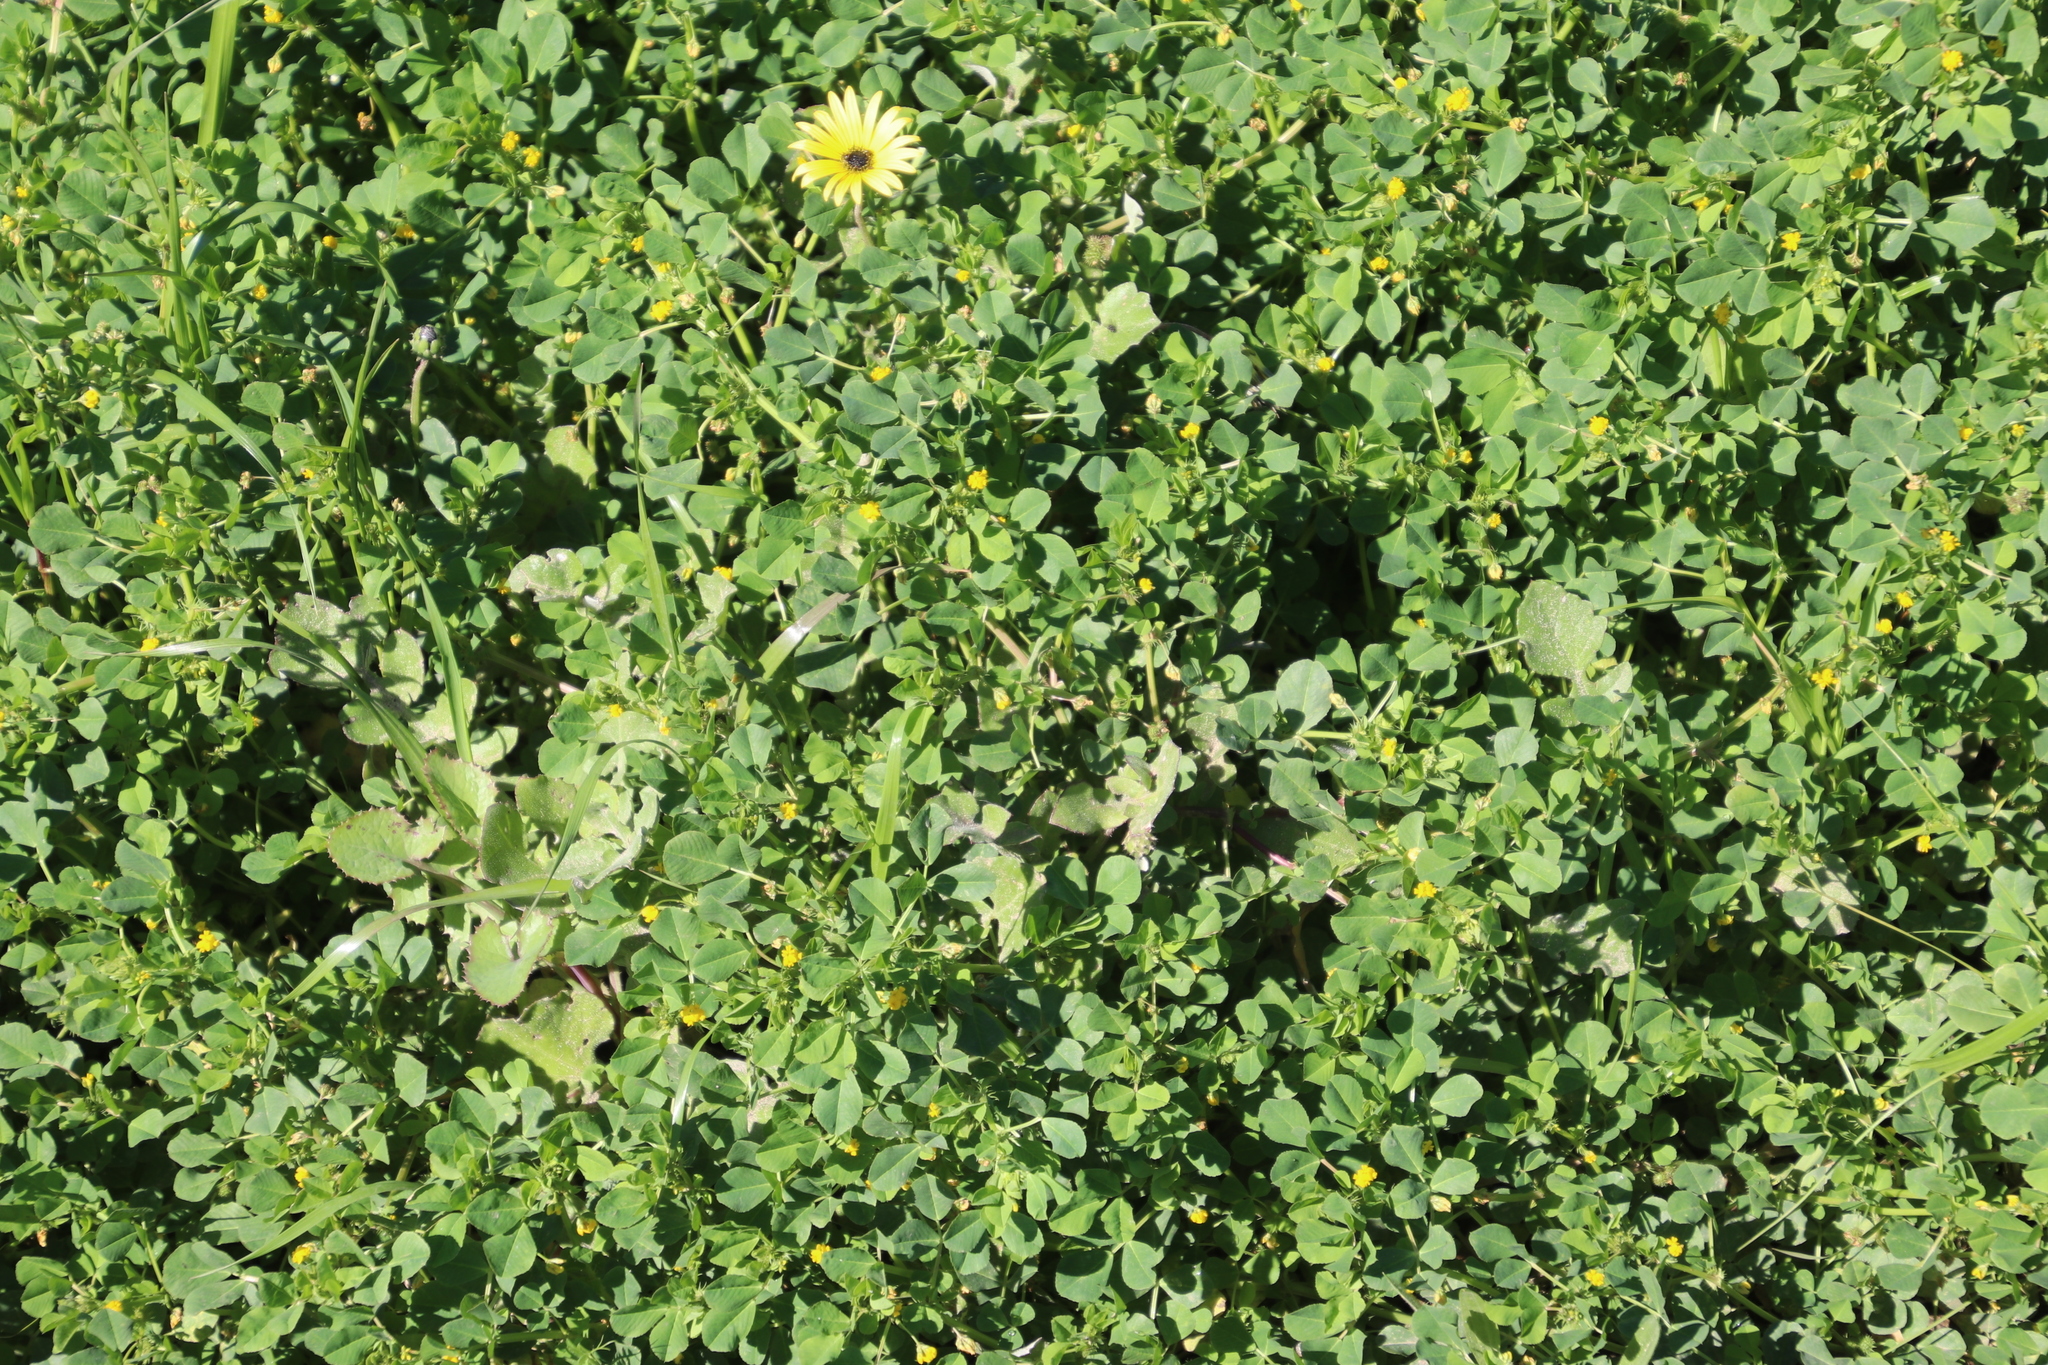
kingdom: Plantae
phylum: Tracheophyta
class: Magnoliopsida
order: Fabales
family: Fabaceae
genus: Medicago
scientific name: Medicago polymorpha
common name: Burclover
